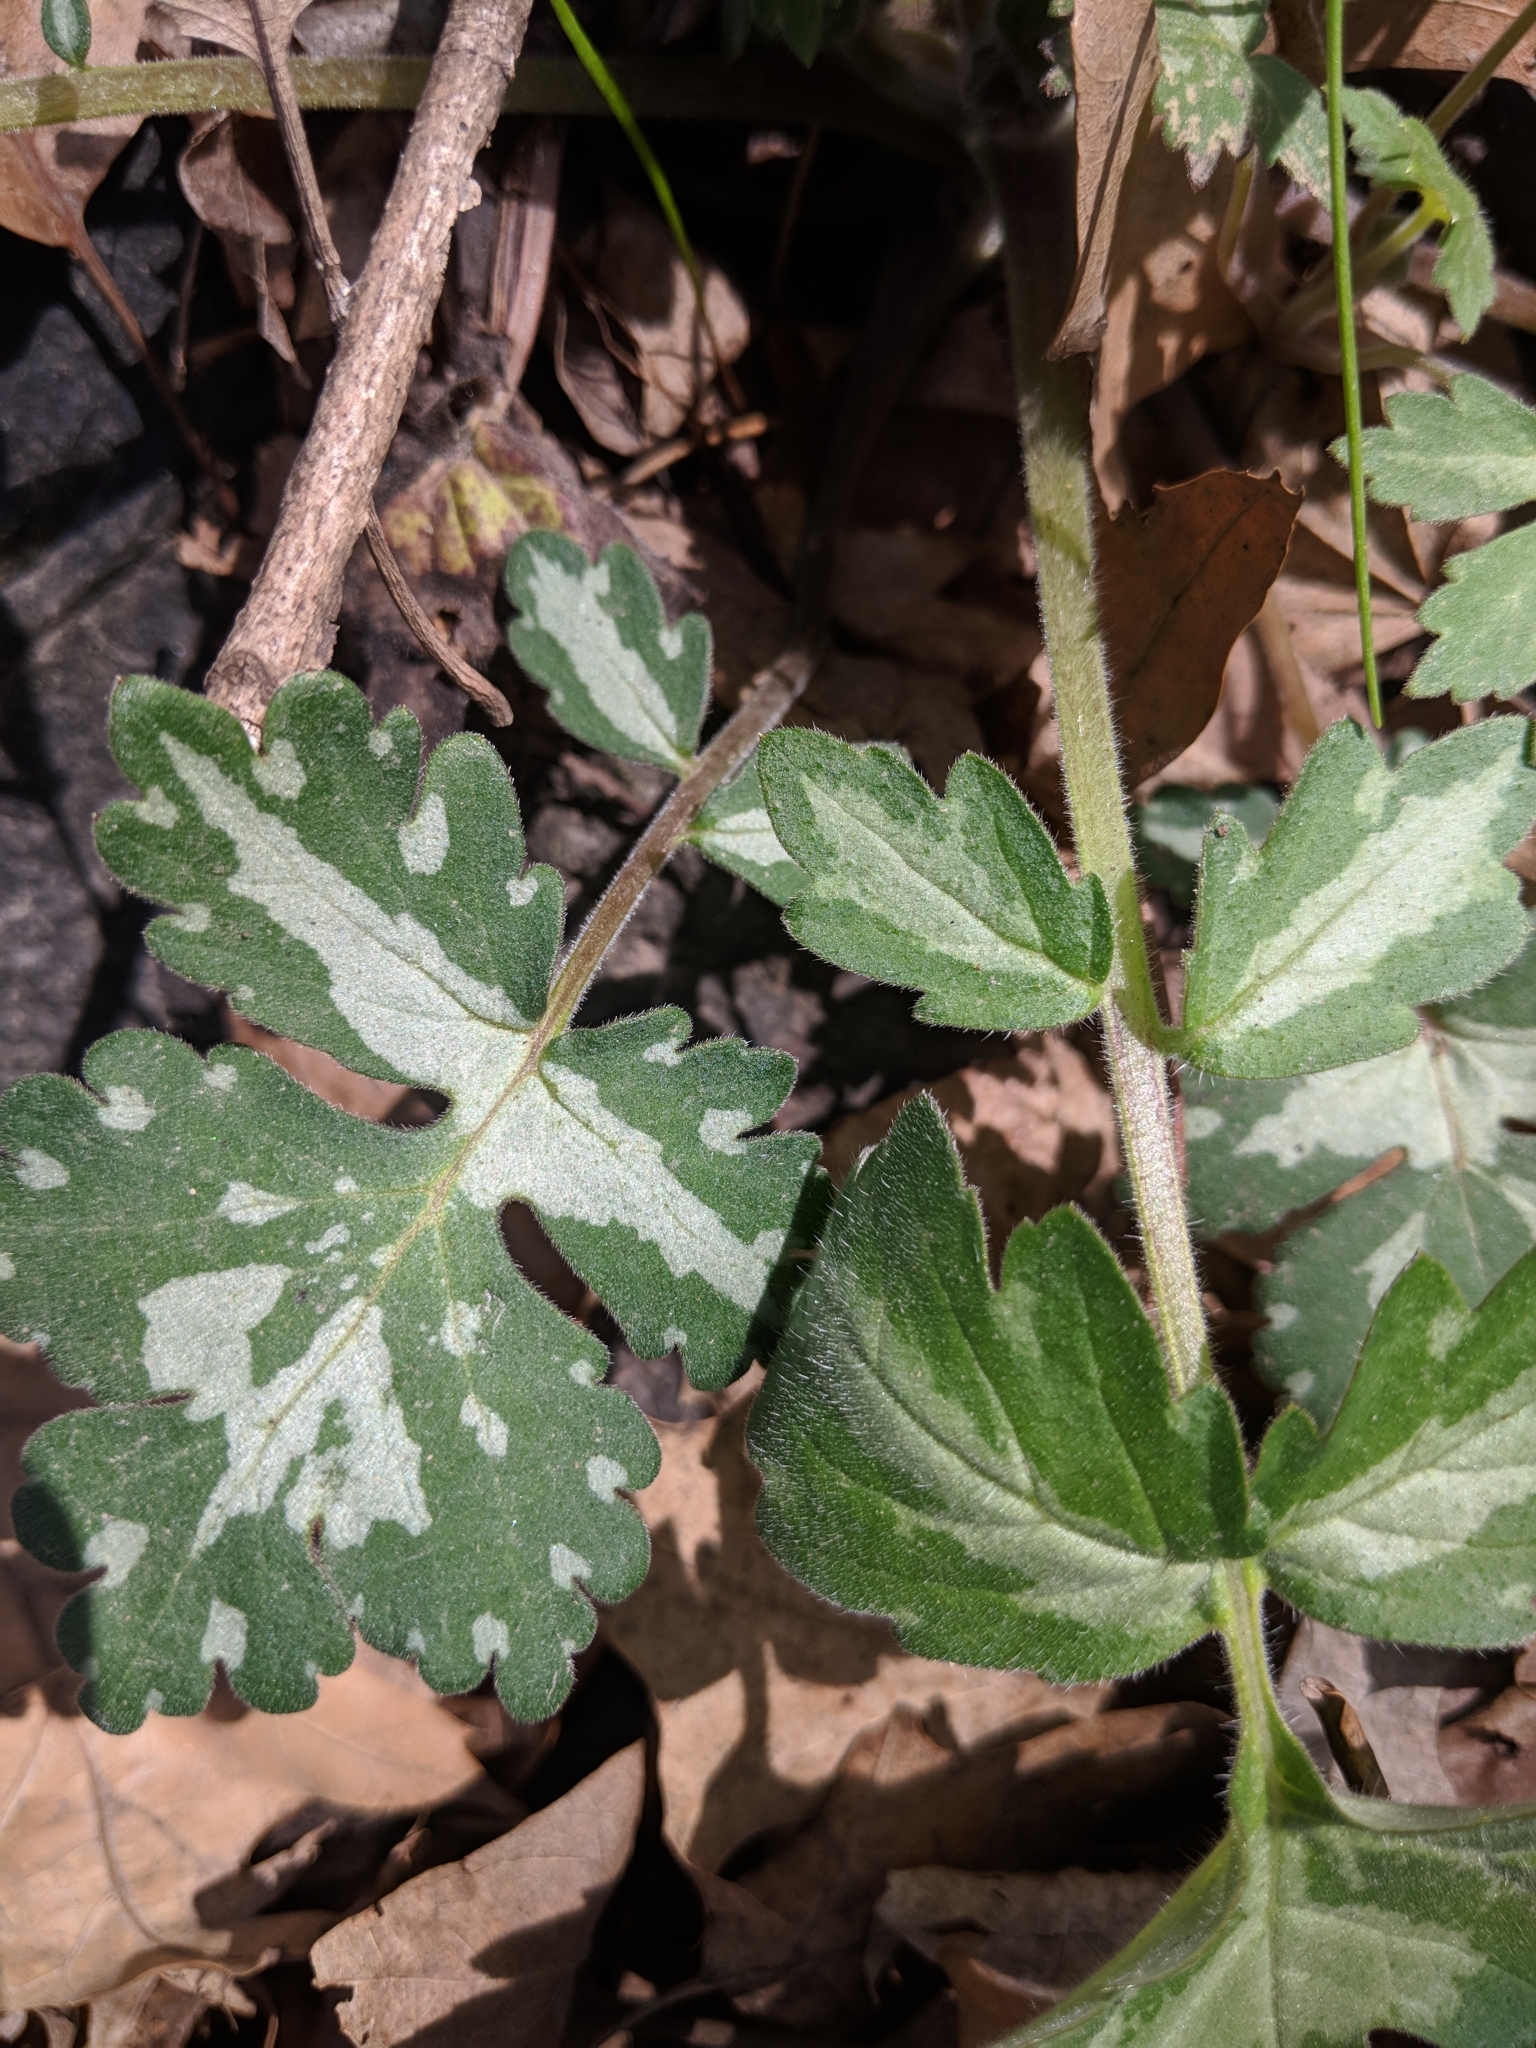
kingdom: Plantae
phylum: Tracheophyta
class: Magnoliopsida
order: Boraginales
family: Hydrophyllaceae
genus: Hydrophyllum
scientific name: Hydrophyllum appendiculatum
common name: Appendaged waterleaf
